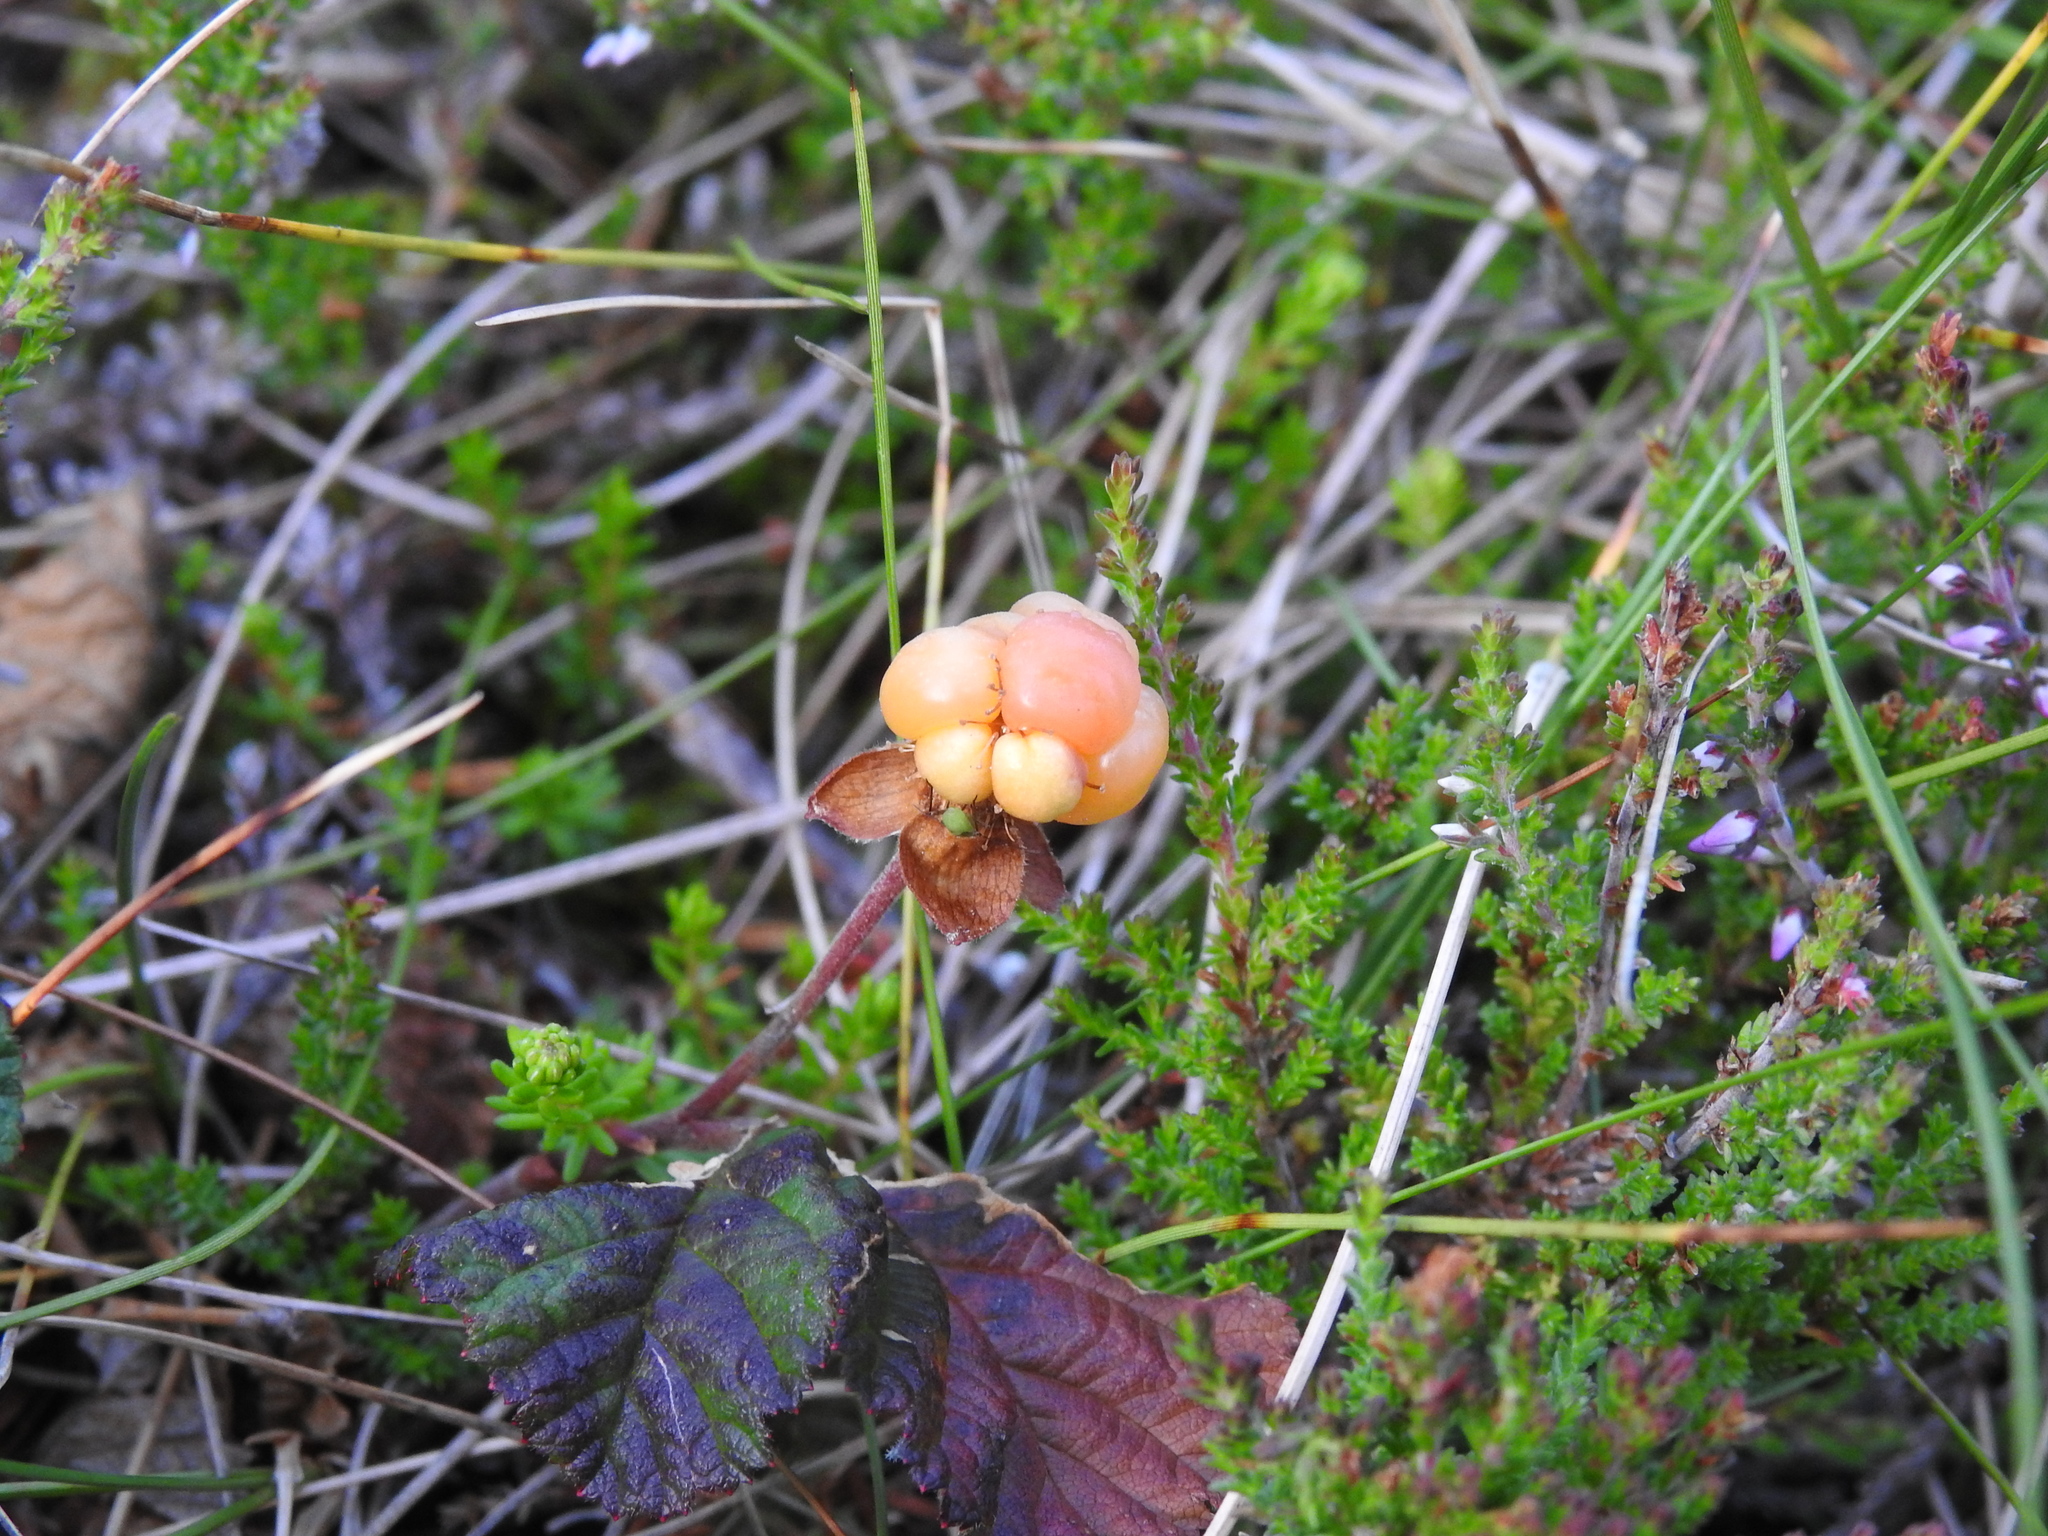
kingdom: Plantae
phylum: Tracheophyta
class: Magnoliopsida
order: Rosales
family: Rosaceae
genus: Rubus
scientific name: Rubus chamaemorus
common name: Cloudberry
